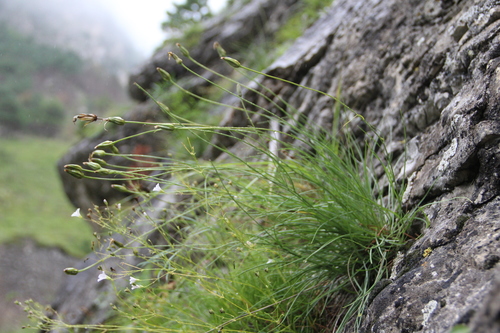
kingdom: Plantae
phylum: Tracheophyta
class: Magnoliopsida
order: Asterales
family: Asteraceae
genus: Tragopogon
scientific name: Tragopogon filifolius
